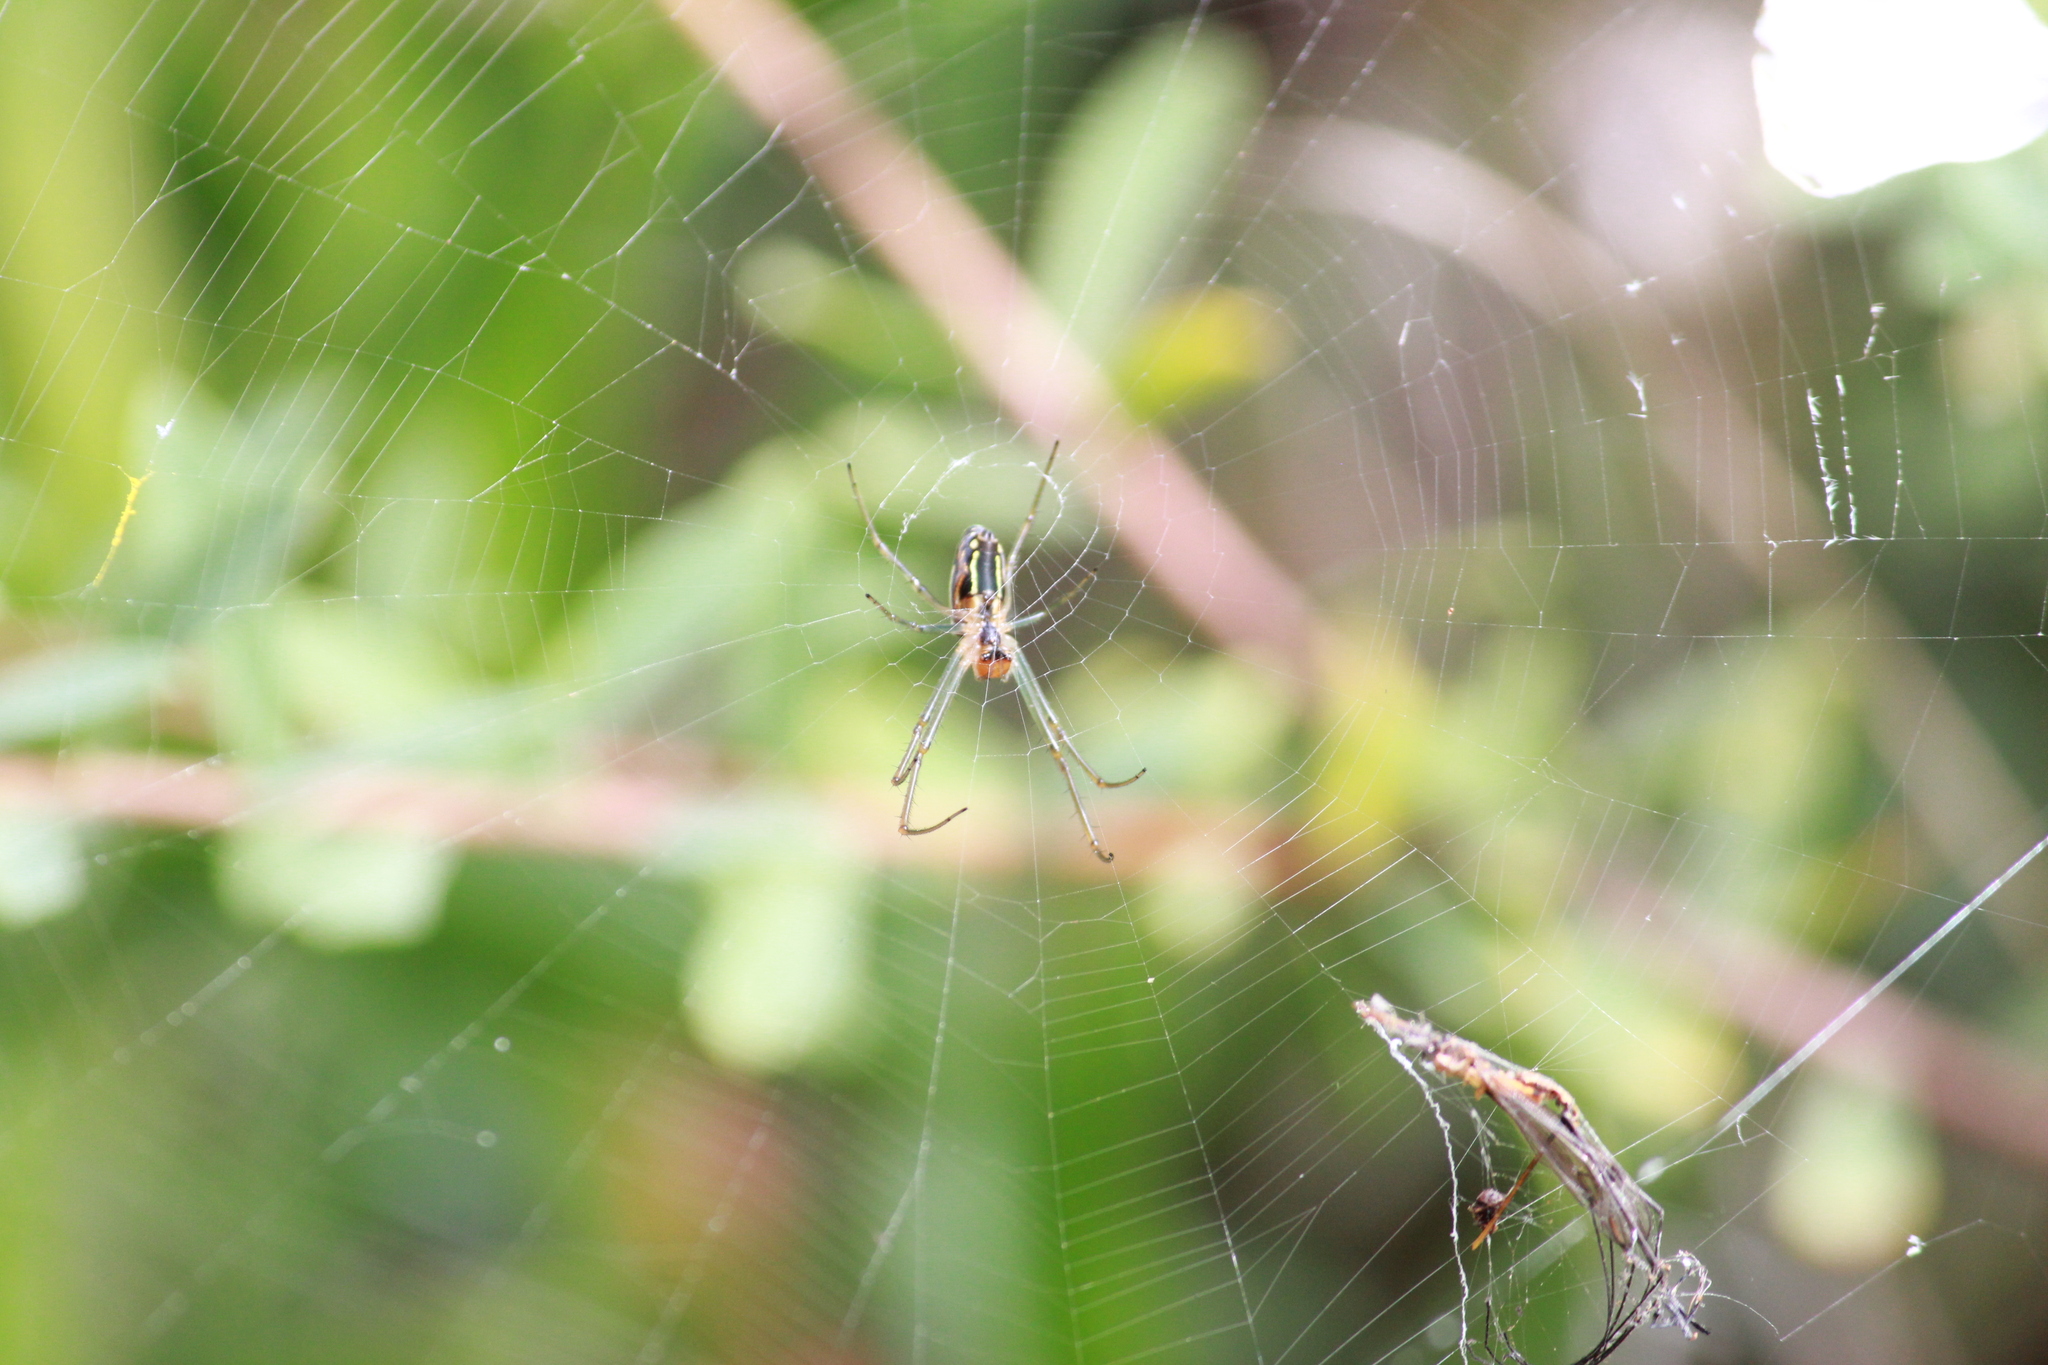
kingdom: Animalia
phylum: Arthropoda
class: Arachnida
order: Araneae
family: Tetragnathidae
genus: Leucauge
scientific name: Leucauge festiva
